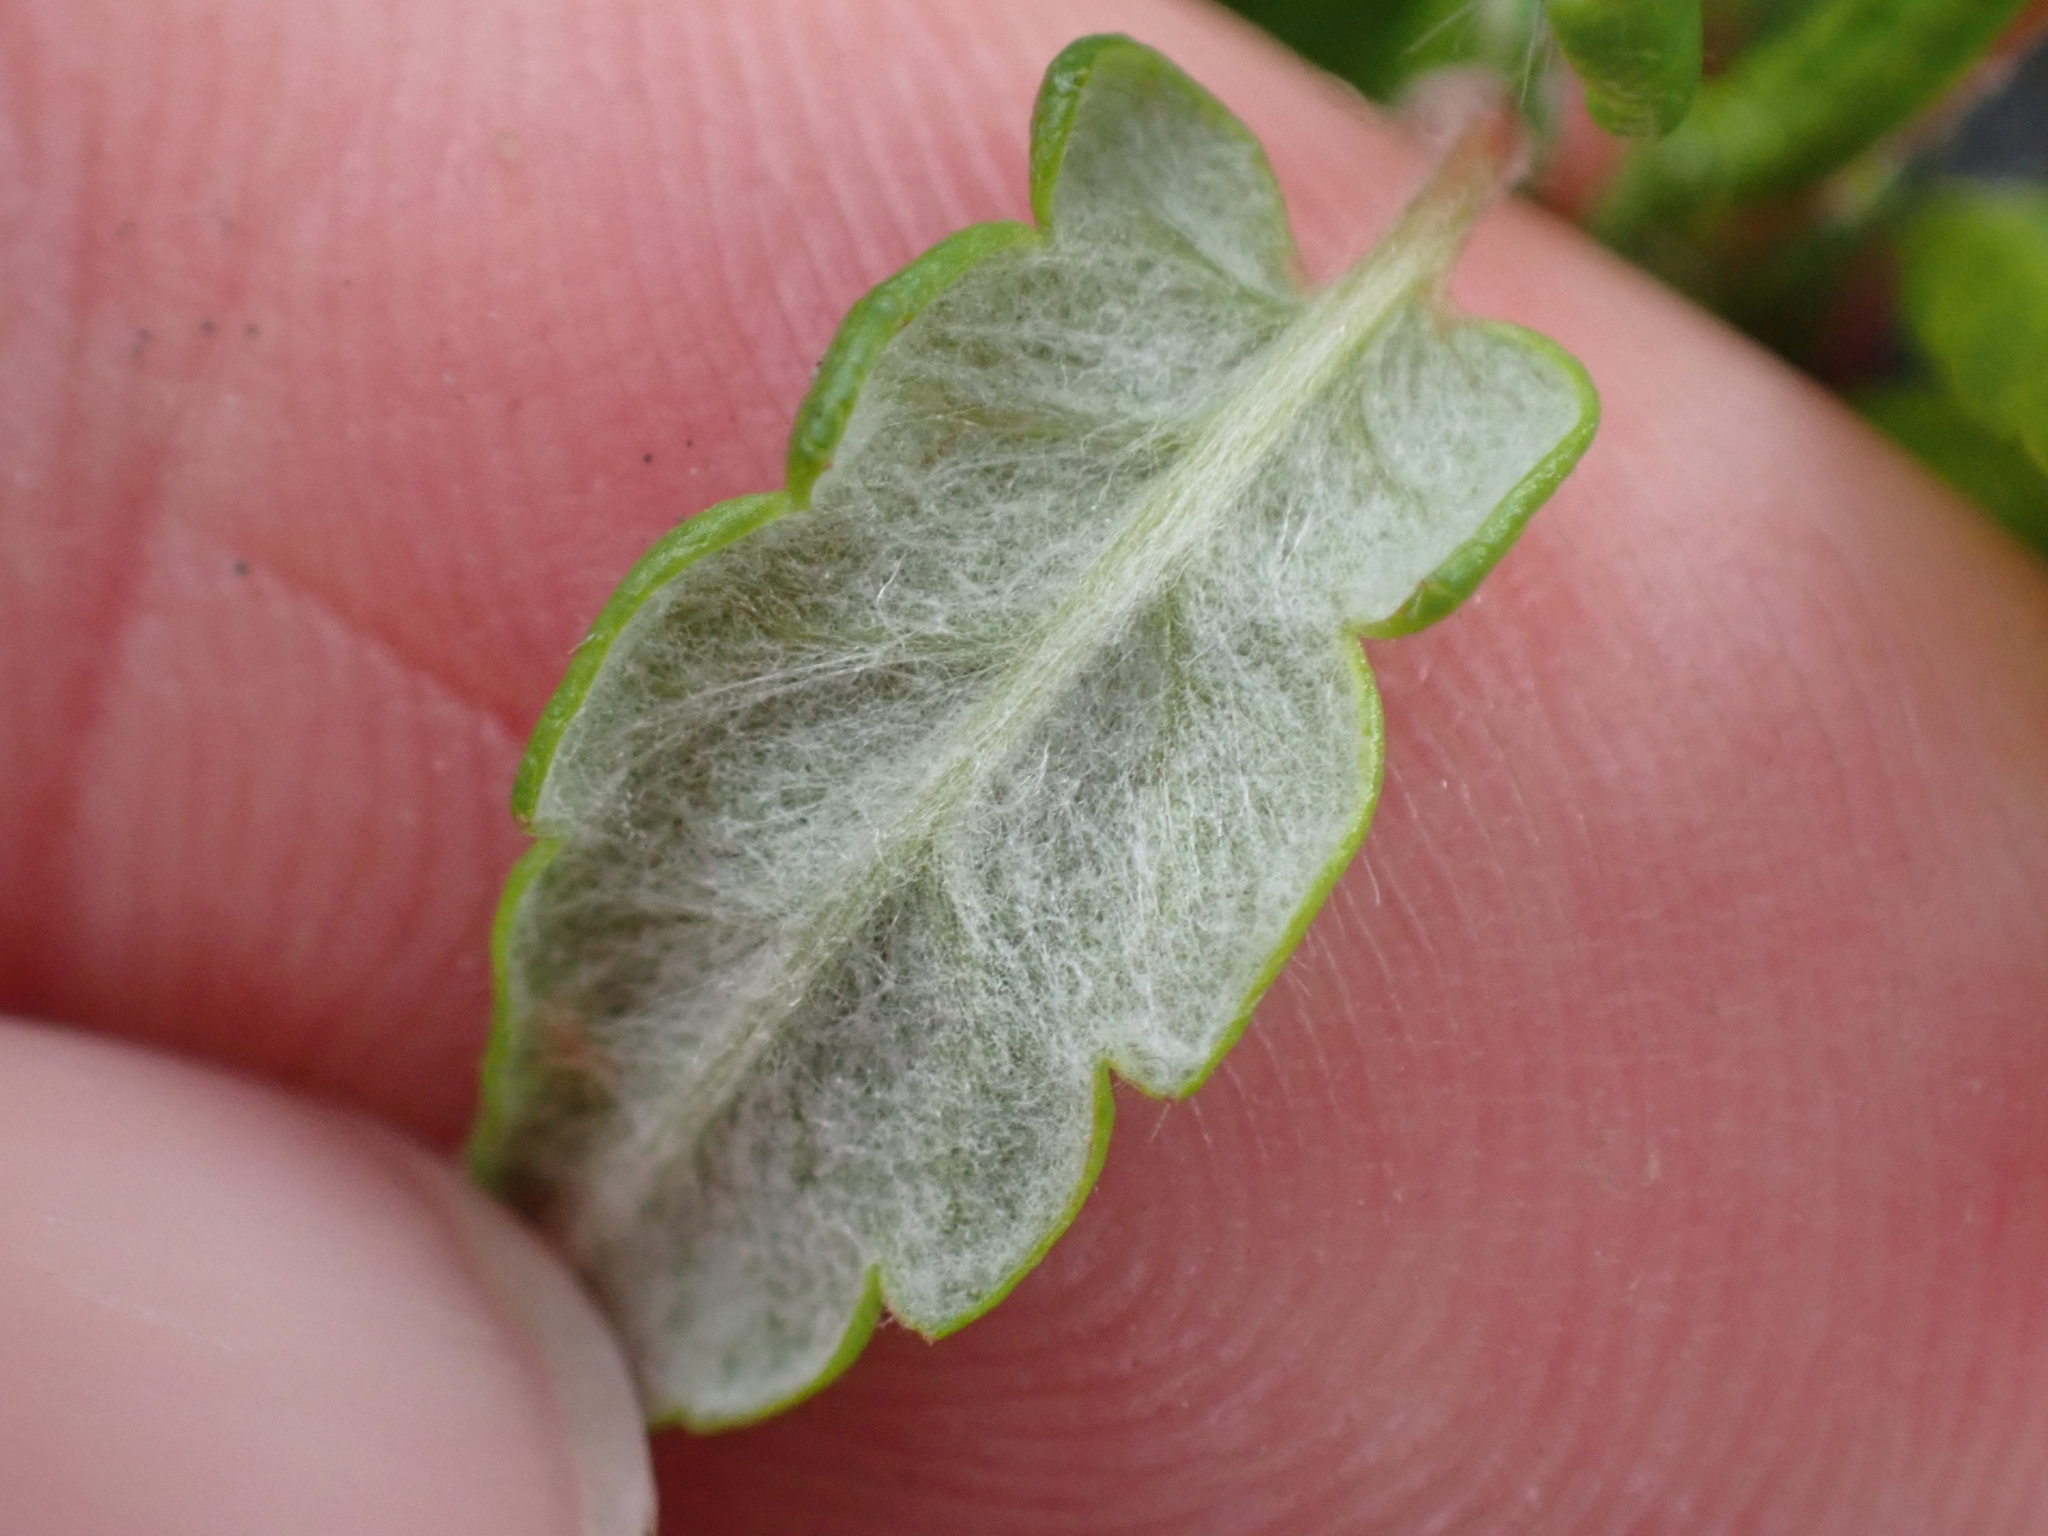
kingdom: Plantae
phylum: Tracheophyta
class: Magnoliopsida
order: Rosales
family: Rosaceae
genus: Dryas
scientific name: Dryas integrifolia
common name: Entire-leaved mountain avens
